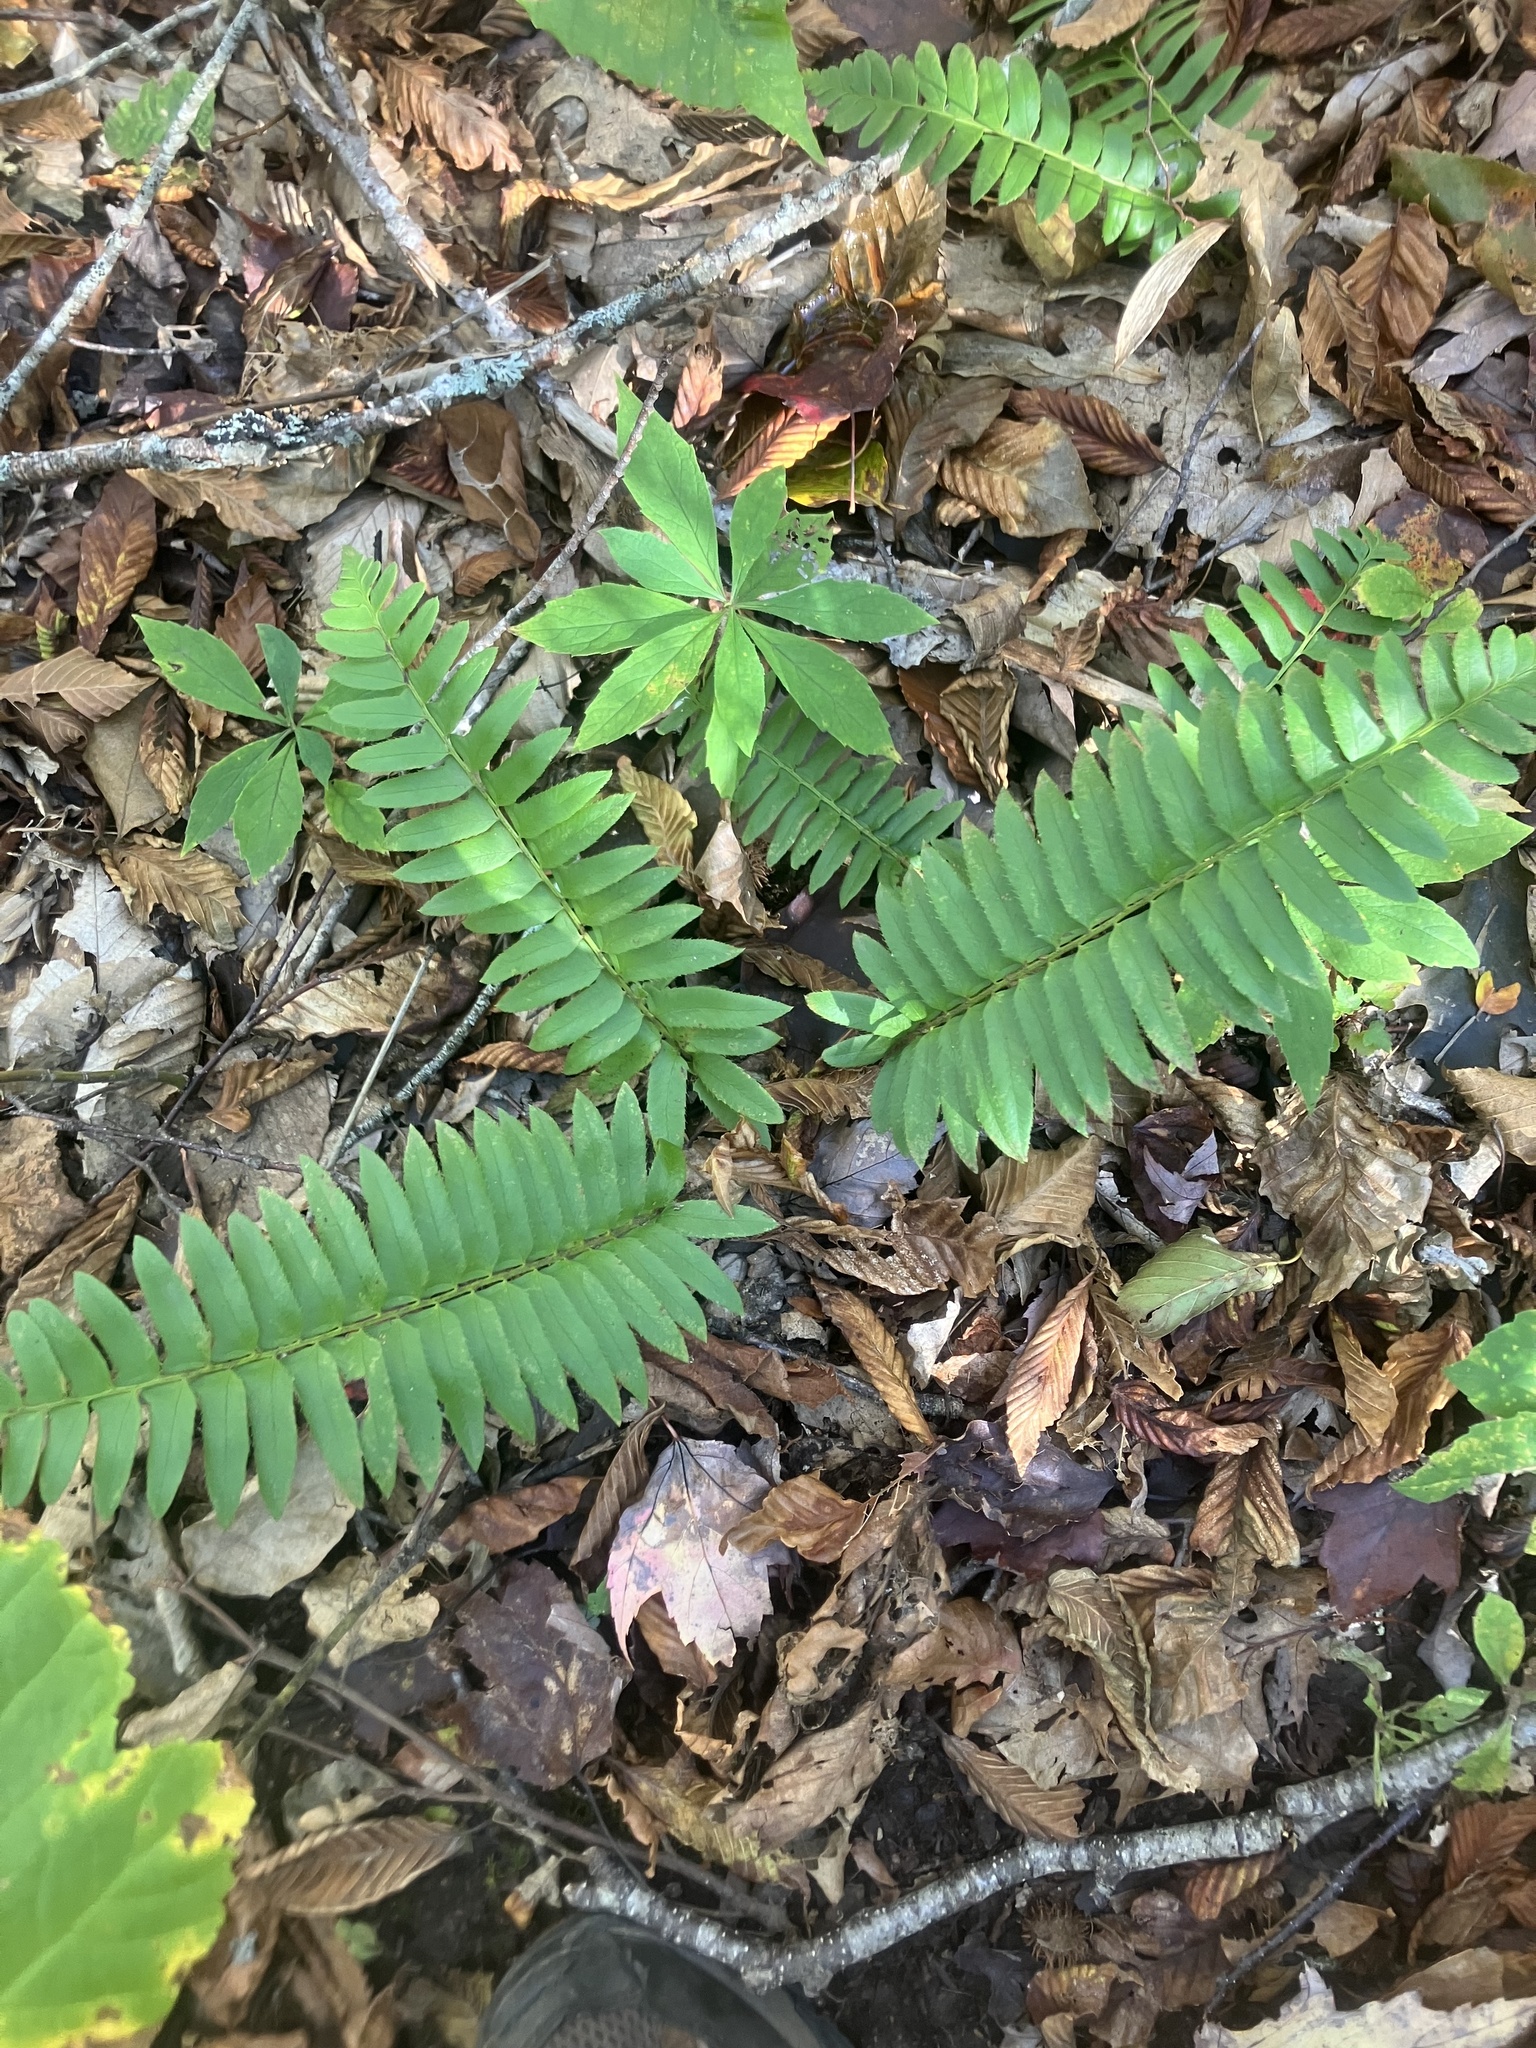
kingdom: Plantae
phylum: Tracheophyta
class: Polypodiopsida
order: Polypodiales
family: Dryopteridaceae
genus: Polystichum
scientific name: Polystichum acrostichoides
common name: Christmas fern
